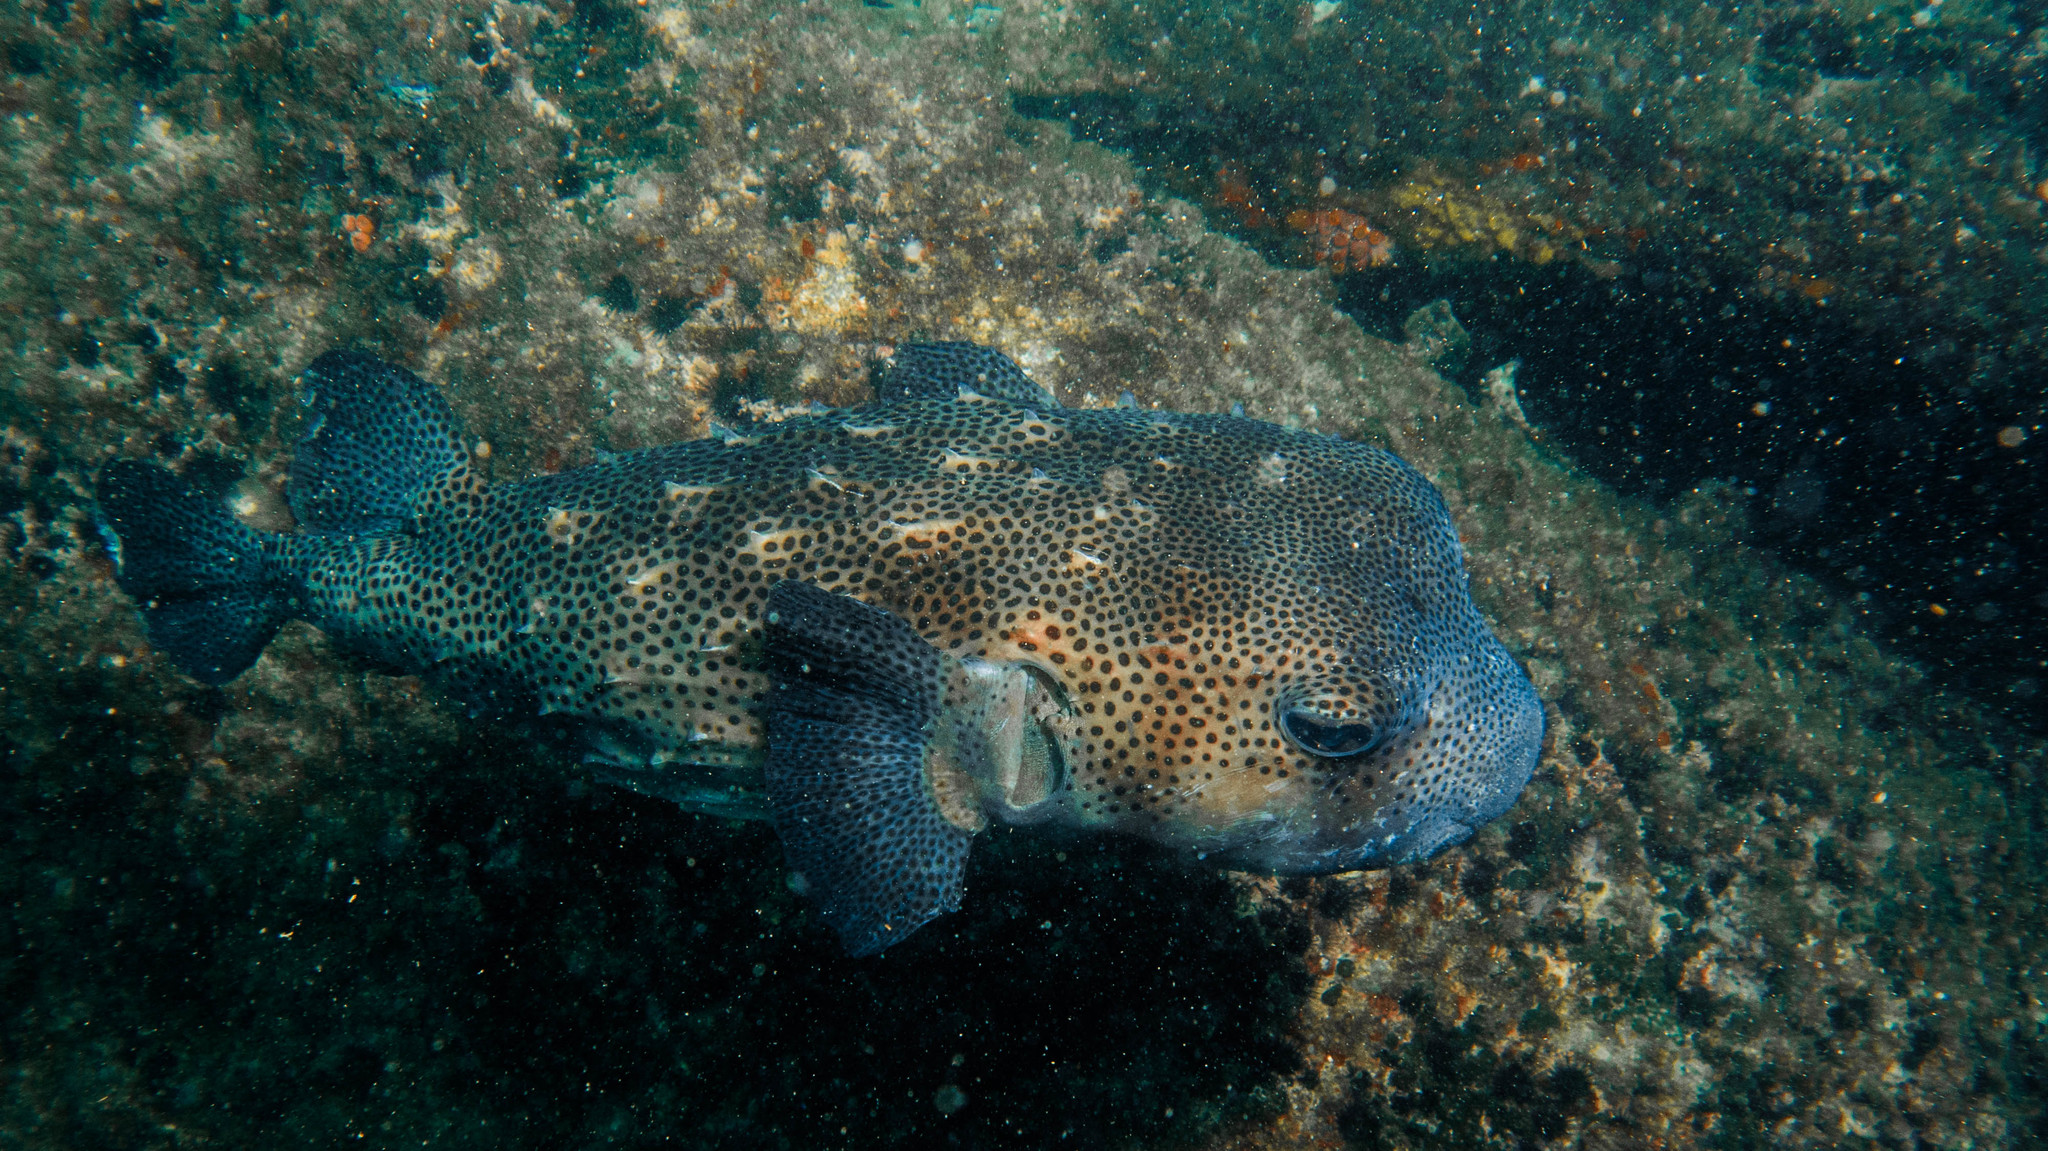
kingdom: Animalia
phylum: Chordata
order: Tetraodontiformes
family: Diodontidae
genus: Chilomycterus
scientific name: Chilomycterus reticulatus
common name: Spotfin burrfish
